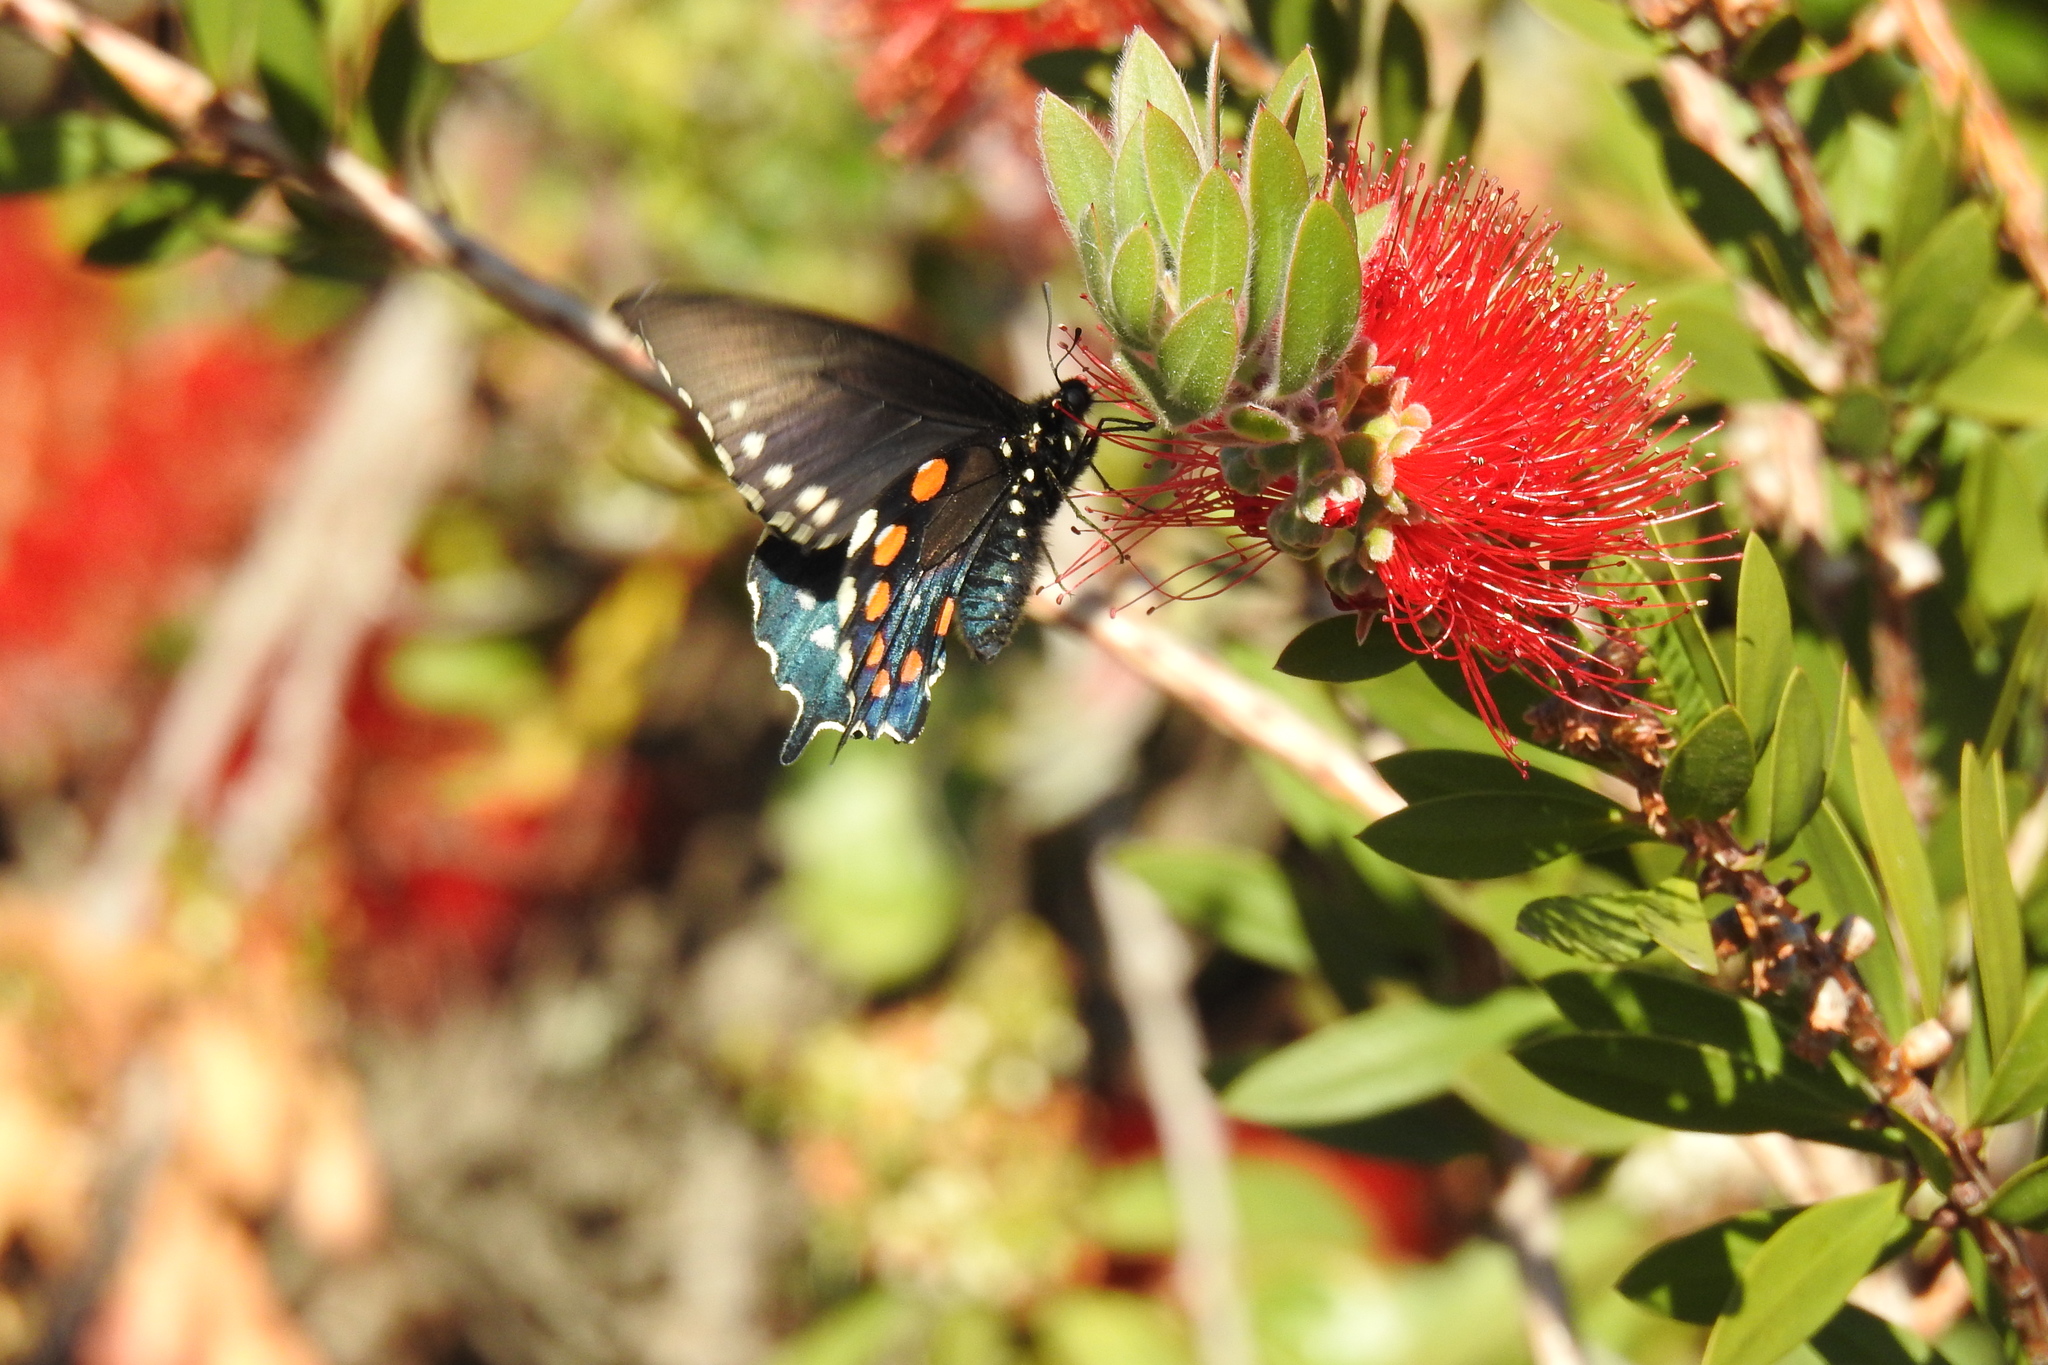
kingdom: Animalia
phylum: Arthropoda
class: Insecta
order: Lepidoptera
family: Papilionidae
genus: Battus
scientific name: Battus philenor
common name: Pipevine swallowtail
